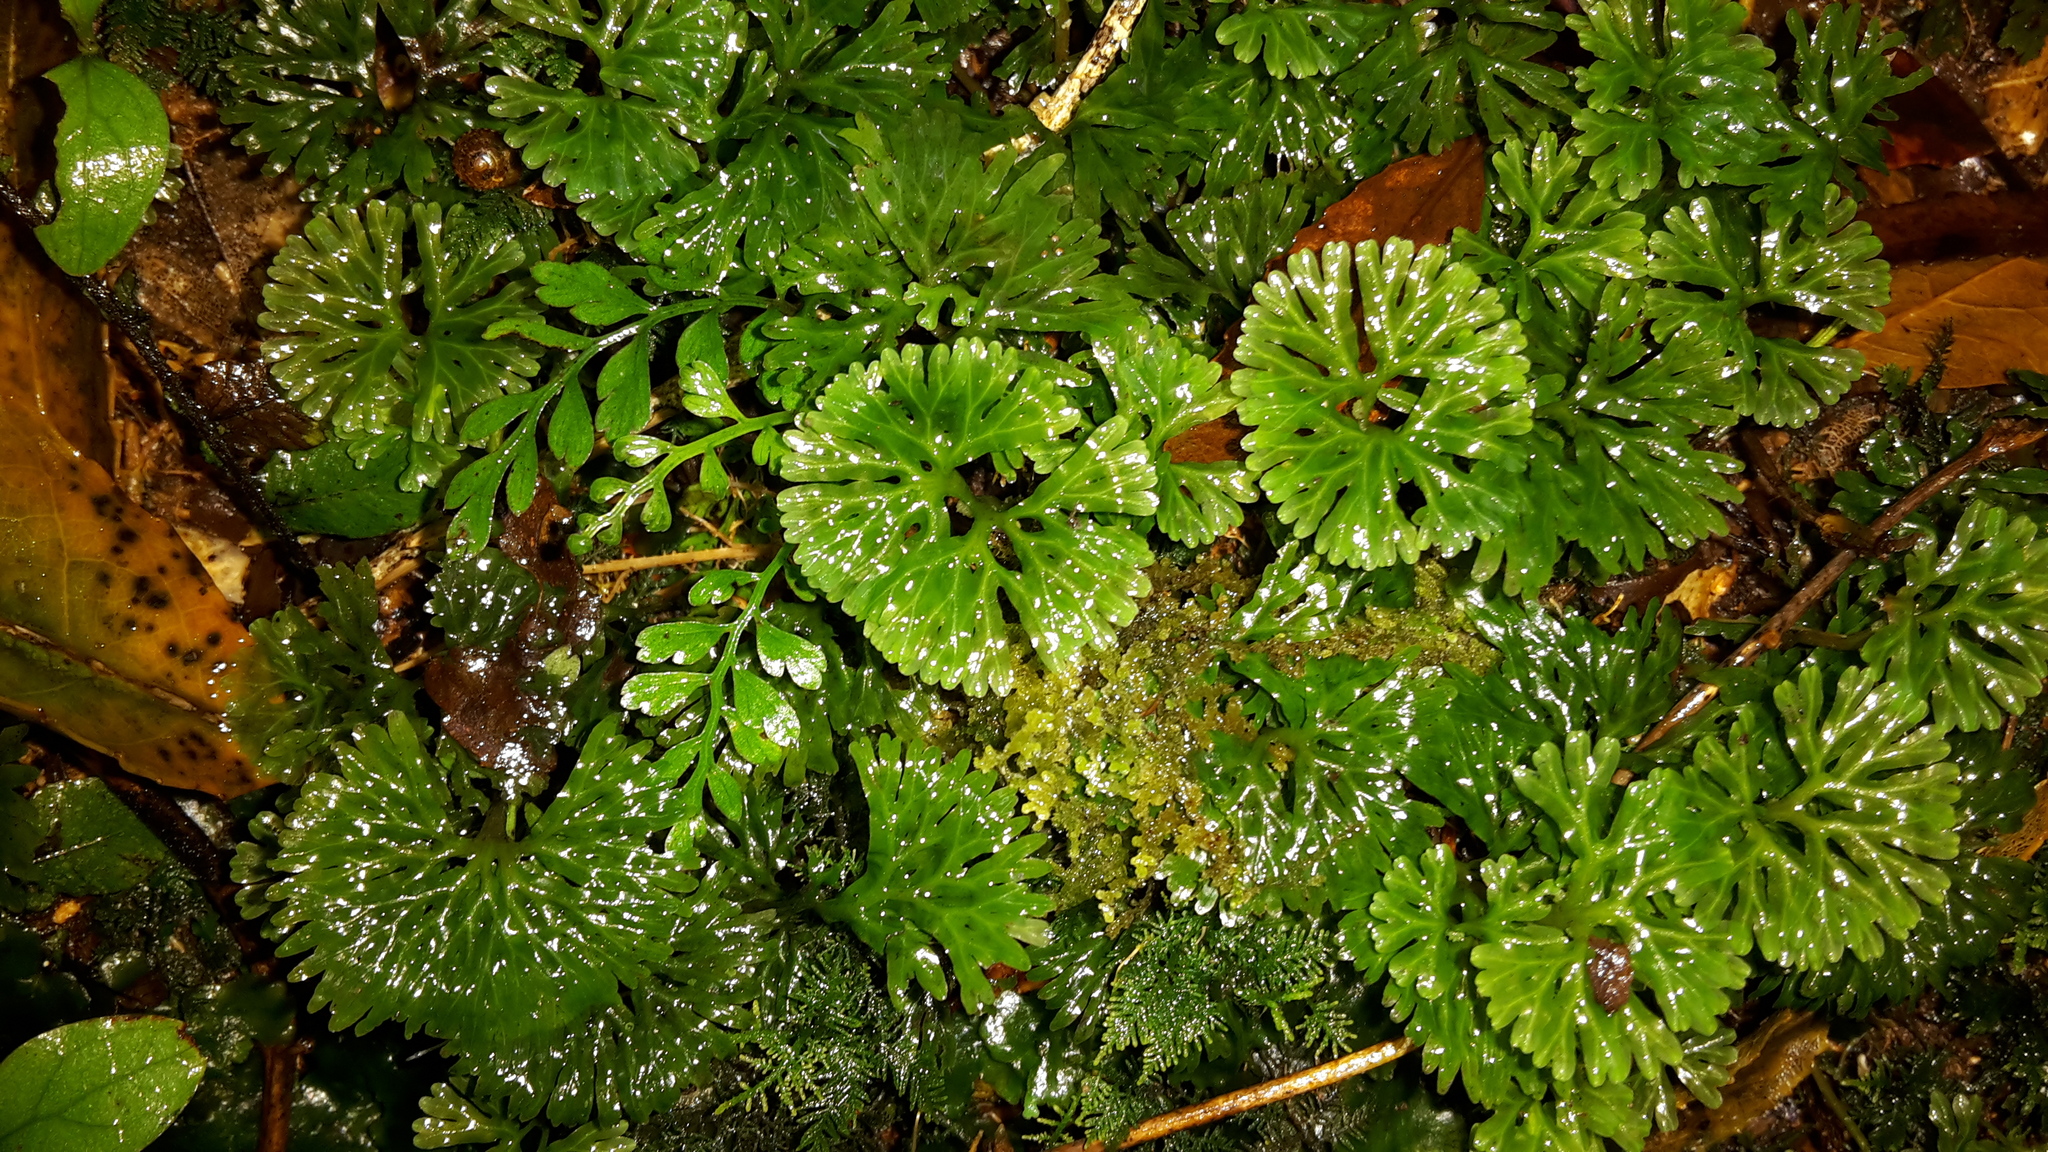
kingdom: Plantae
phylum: Marchantiophyta
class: Jungermanniopsida
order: Pallaviciniales
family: Hymenophytaceae
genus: Hymenophyton
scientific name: Hymenophyton flabellatum
